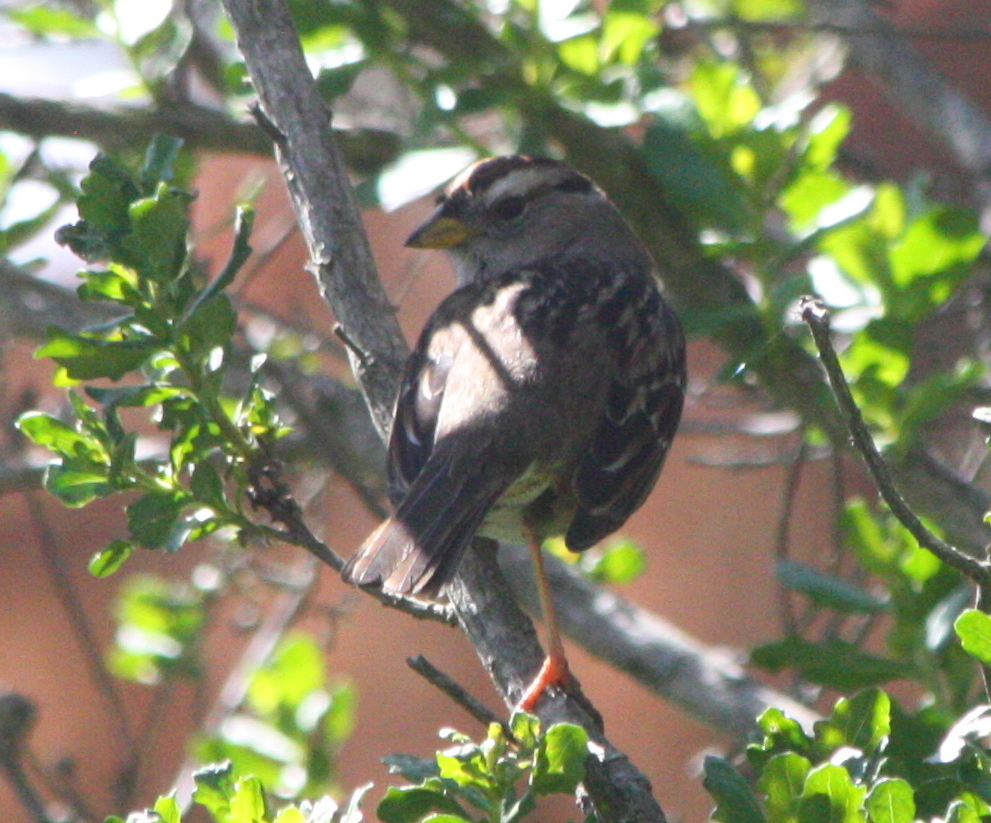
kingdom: Animalia
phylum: Chordata
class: Aves
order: Passeriformes
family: Passerellidae
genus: Zonotrichia
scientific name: Zonotrichia leucophrys
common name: White-crowned sparrow
